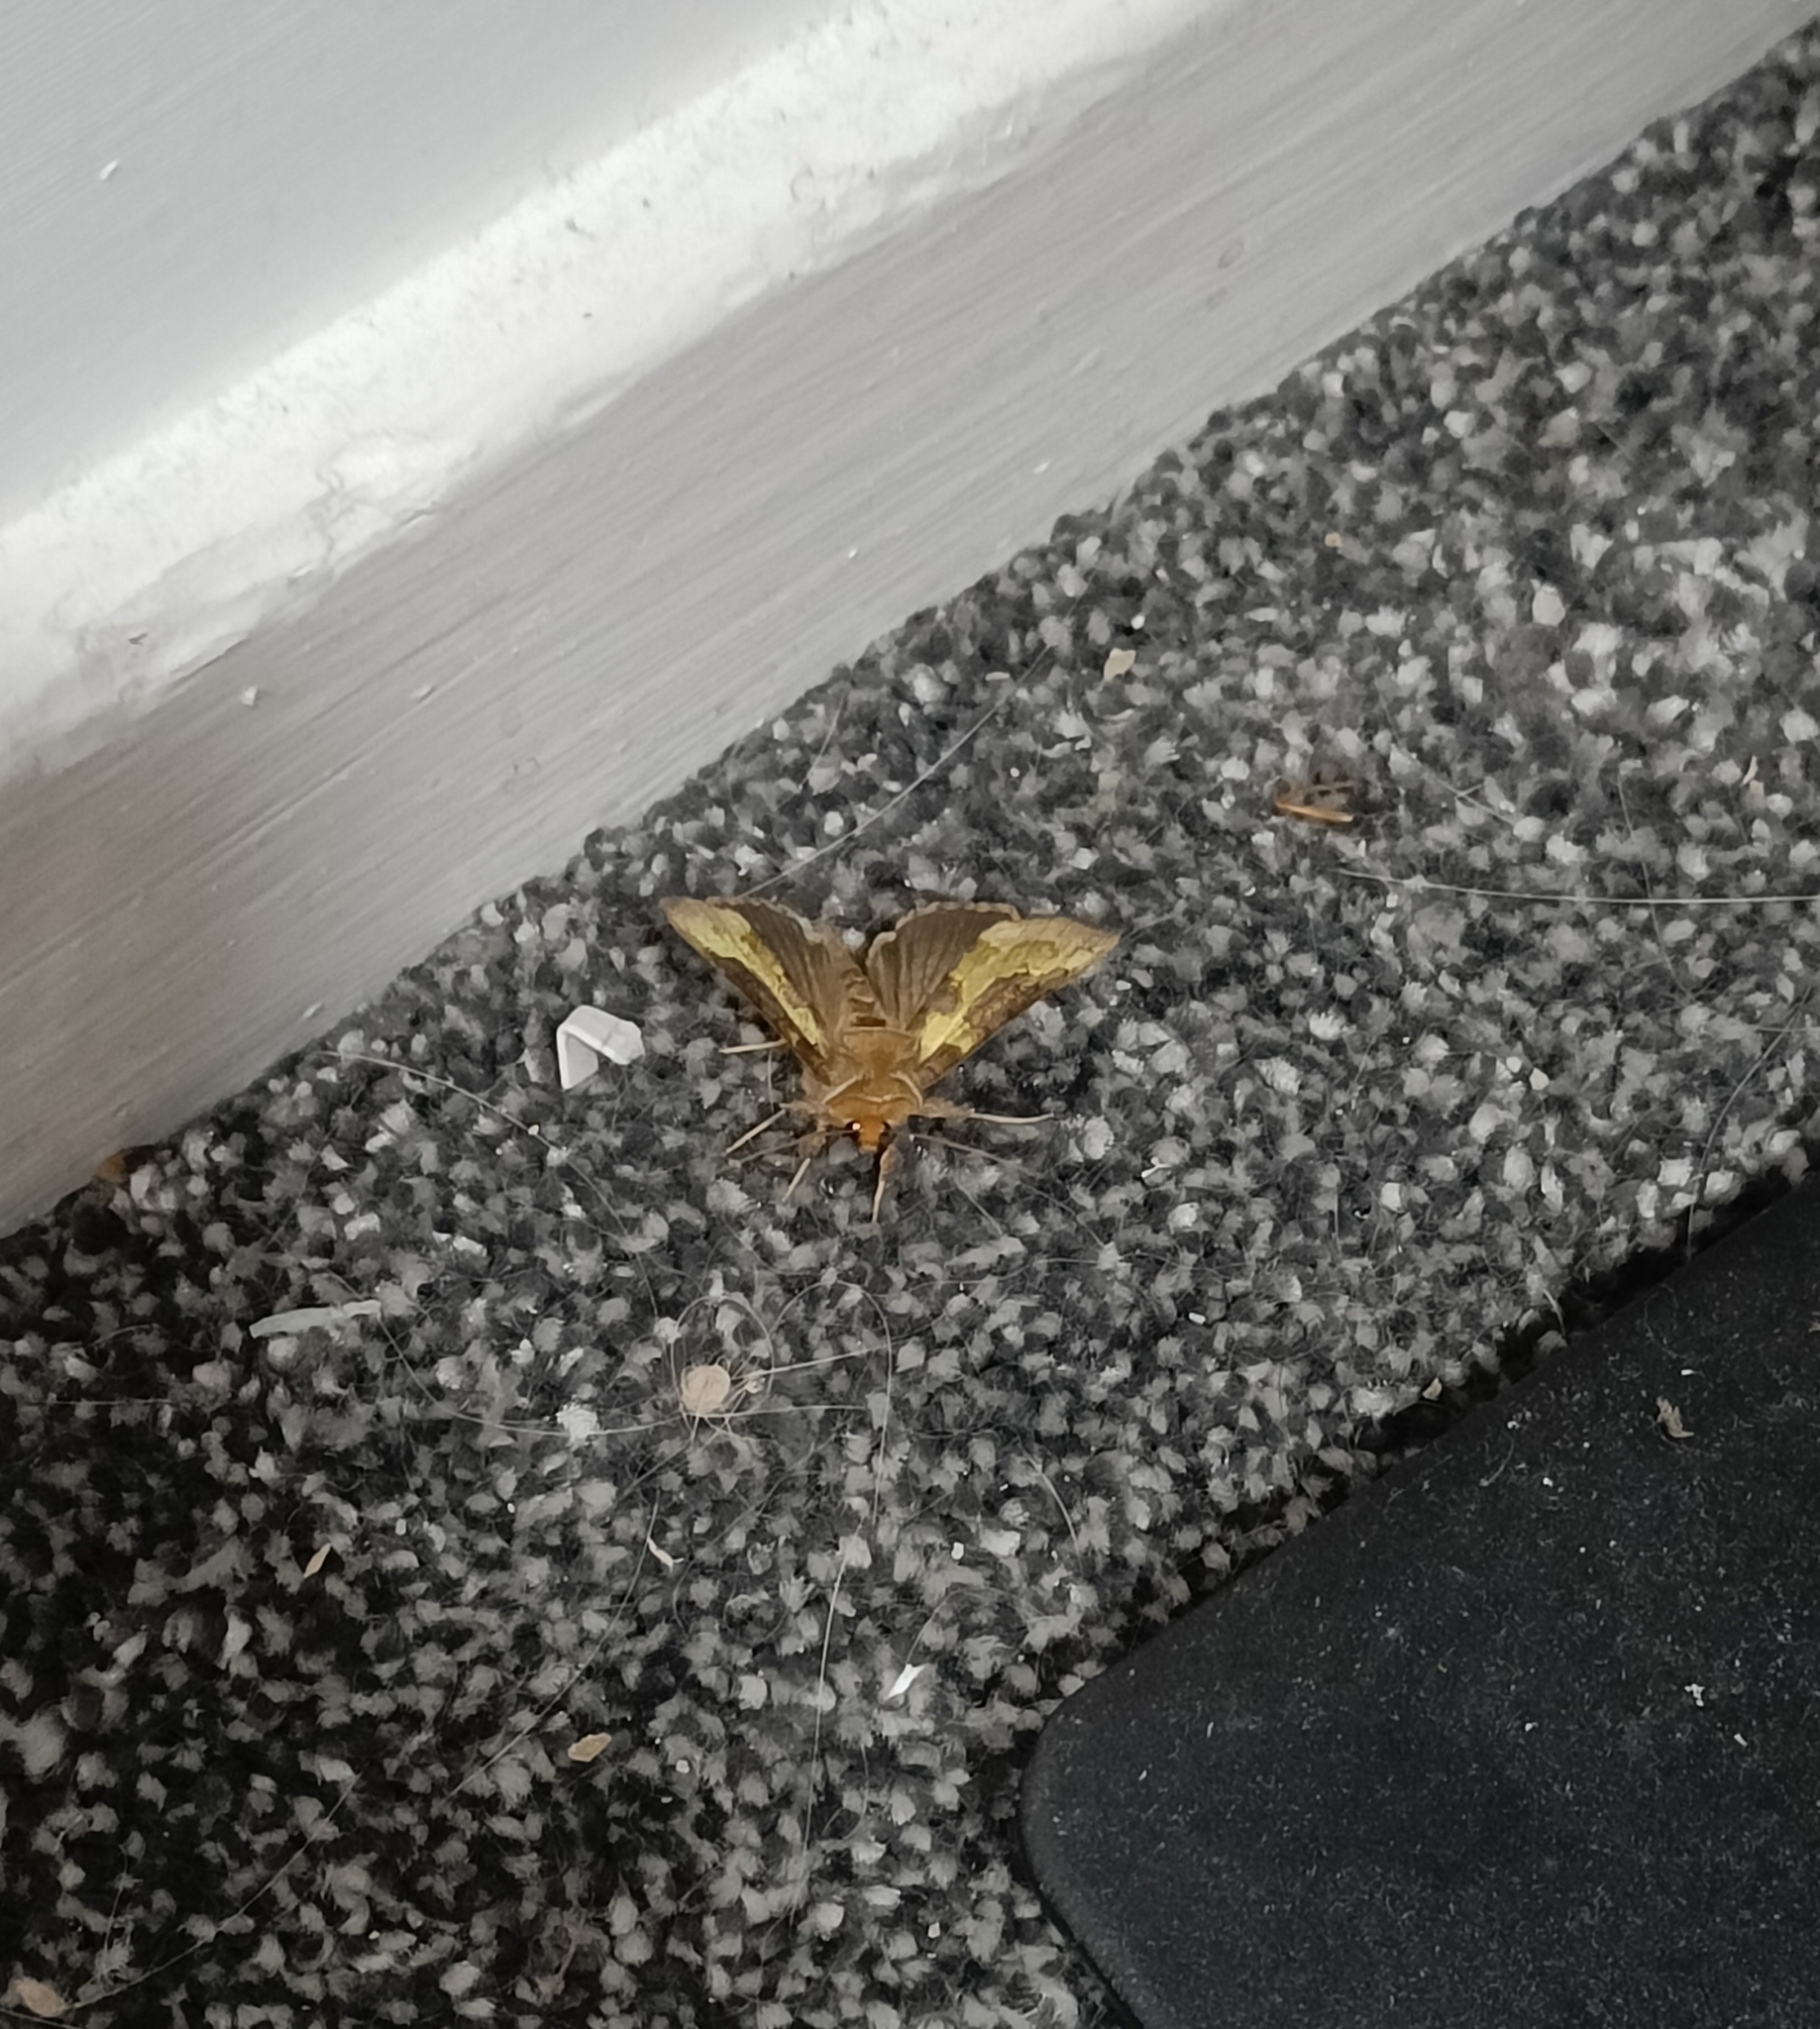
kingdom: Animalia
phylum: Arthropoda
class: Insecta
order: Lepidoptera
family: Noctuidae
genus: Diachrysia
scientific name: Diachrysia chrysitis
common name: Burnished brass
